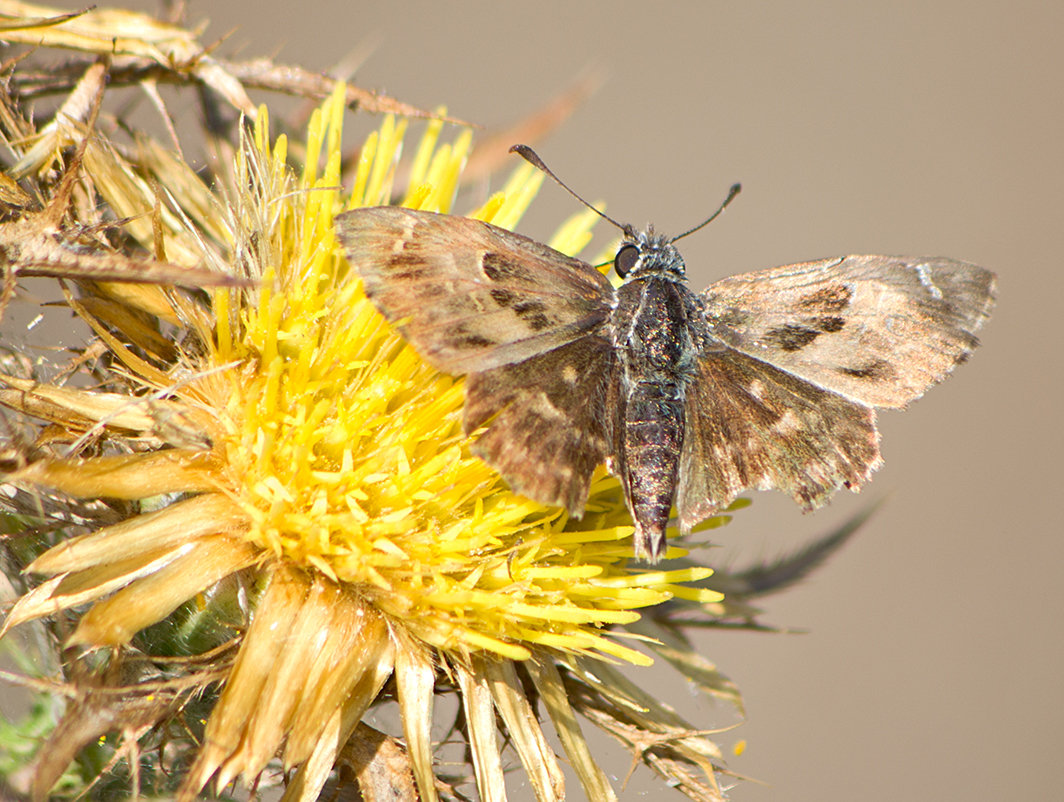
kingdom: Animalia
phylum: Arthropoda
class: Insecta
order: Lepidoptera
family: Hesperiidae
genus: Carcharodus
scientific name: Carcharodus alceae
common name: Mallow skipper
